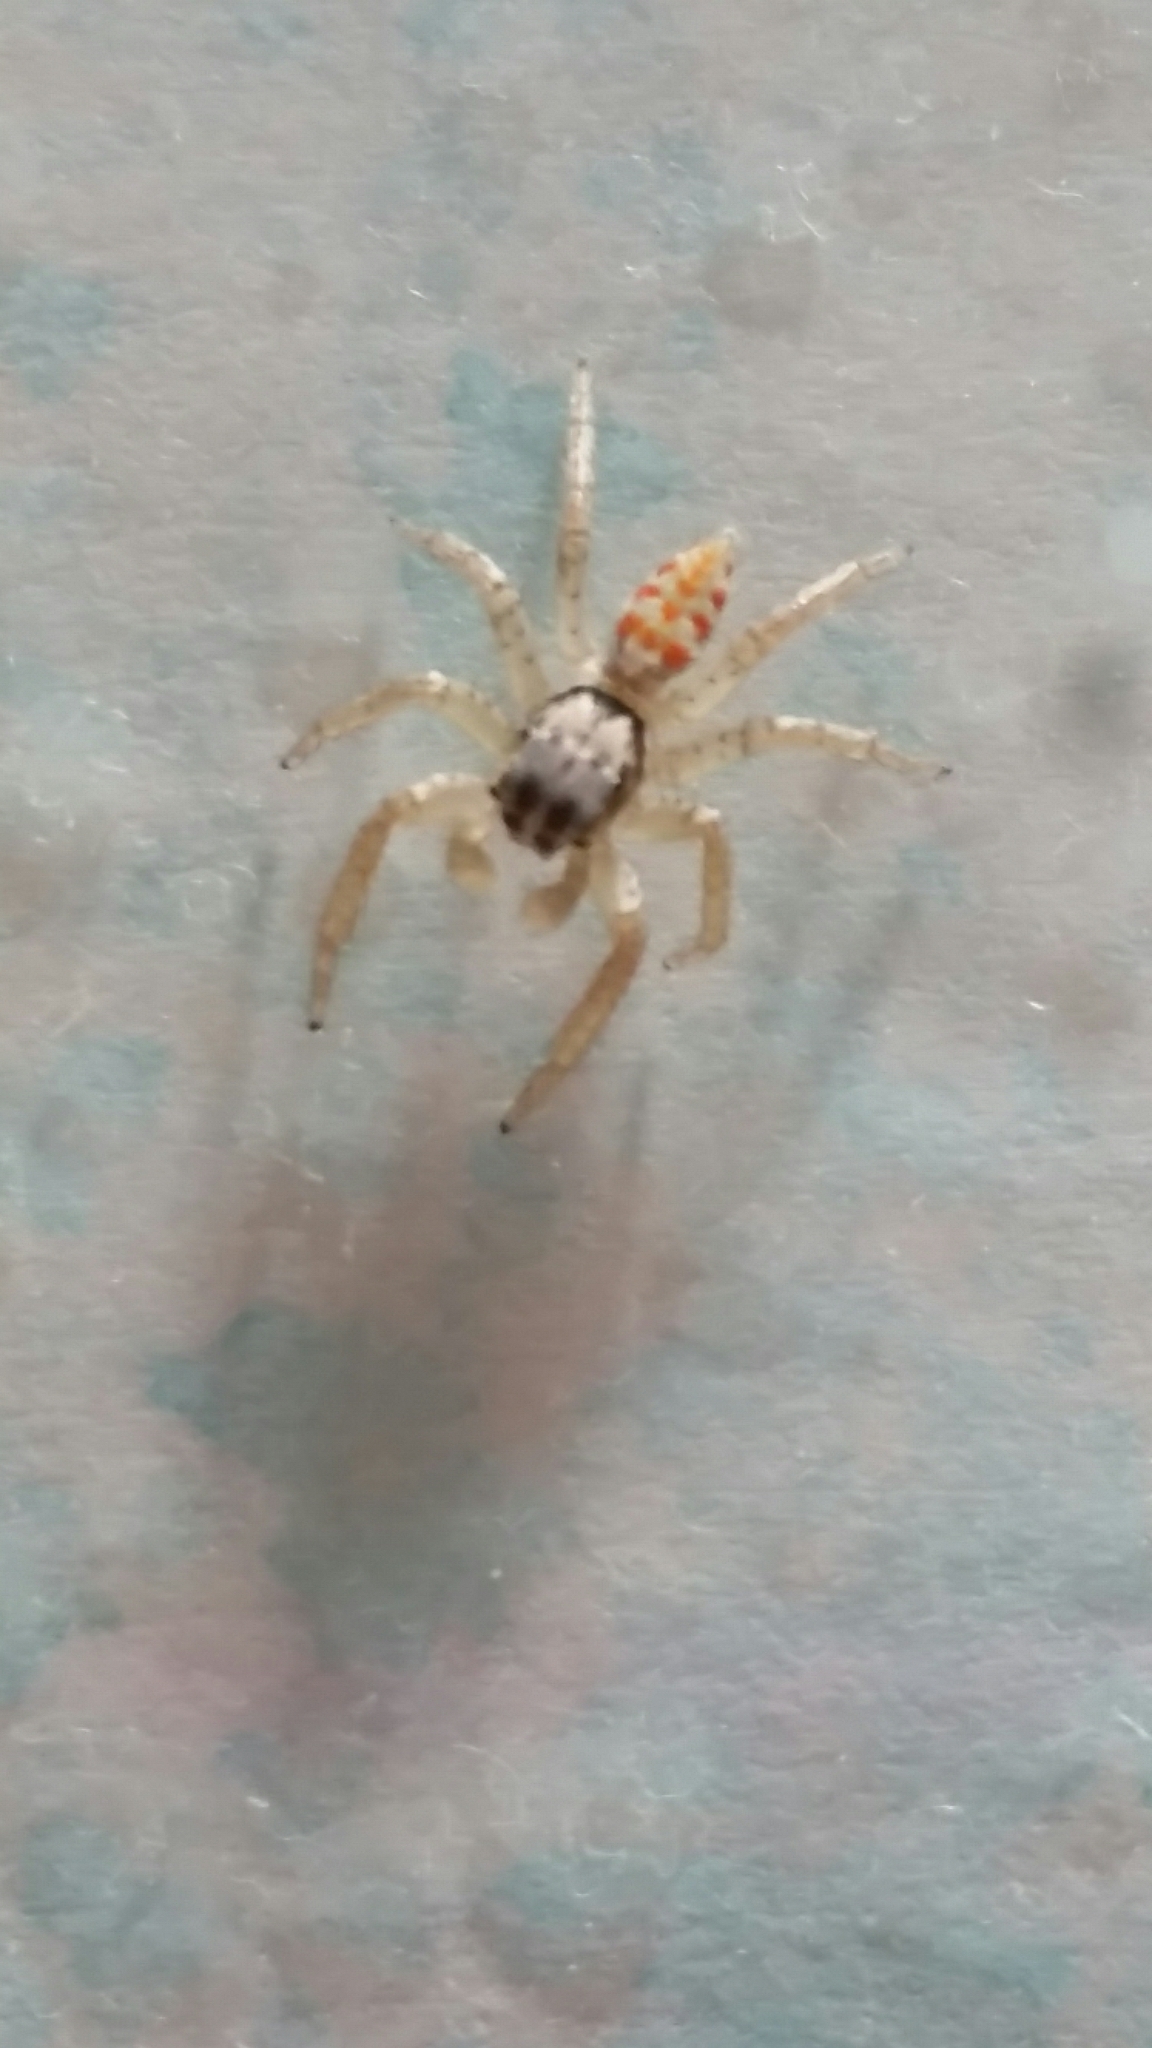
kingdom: Animalia
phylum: Arthropoda
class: Arachnida
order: Araneae
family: Salticidae
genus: Paramaevia
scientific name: Paramaevia poultoni
